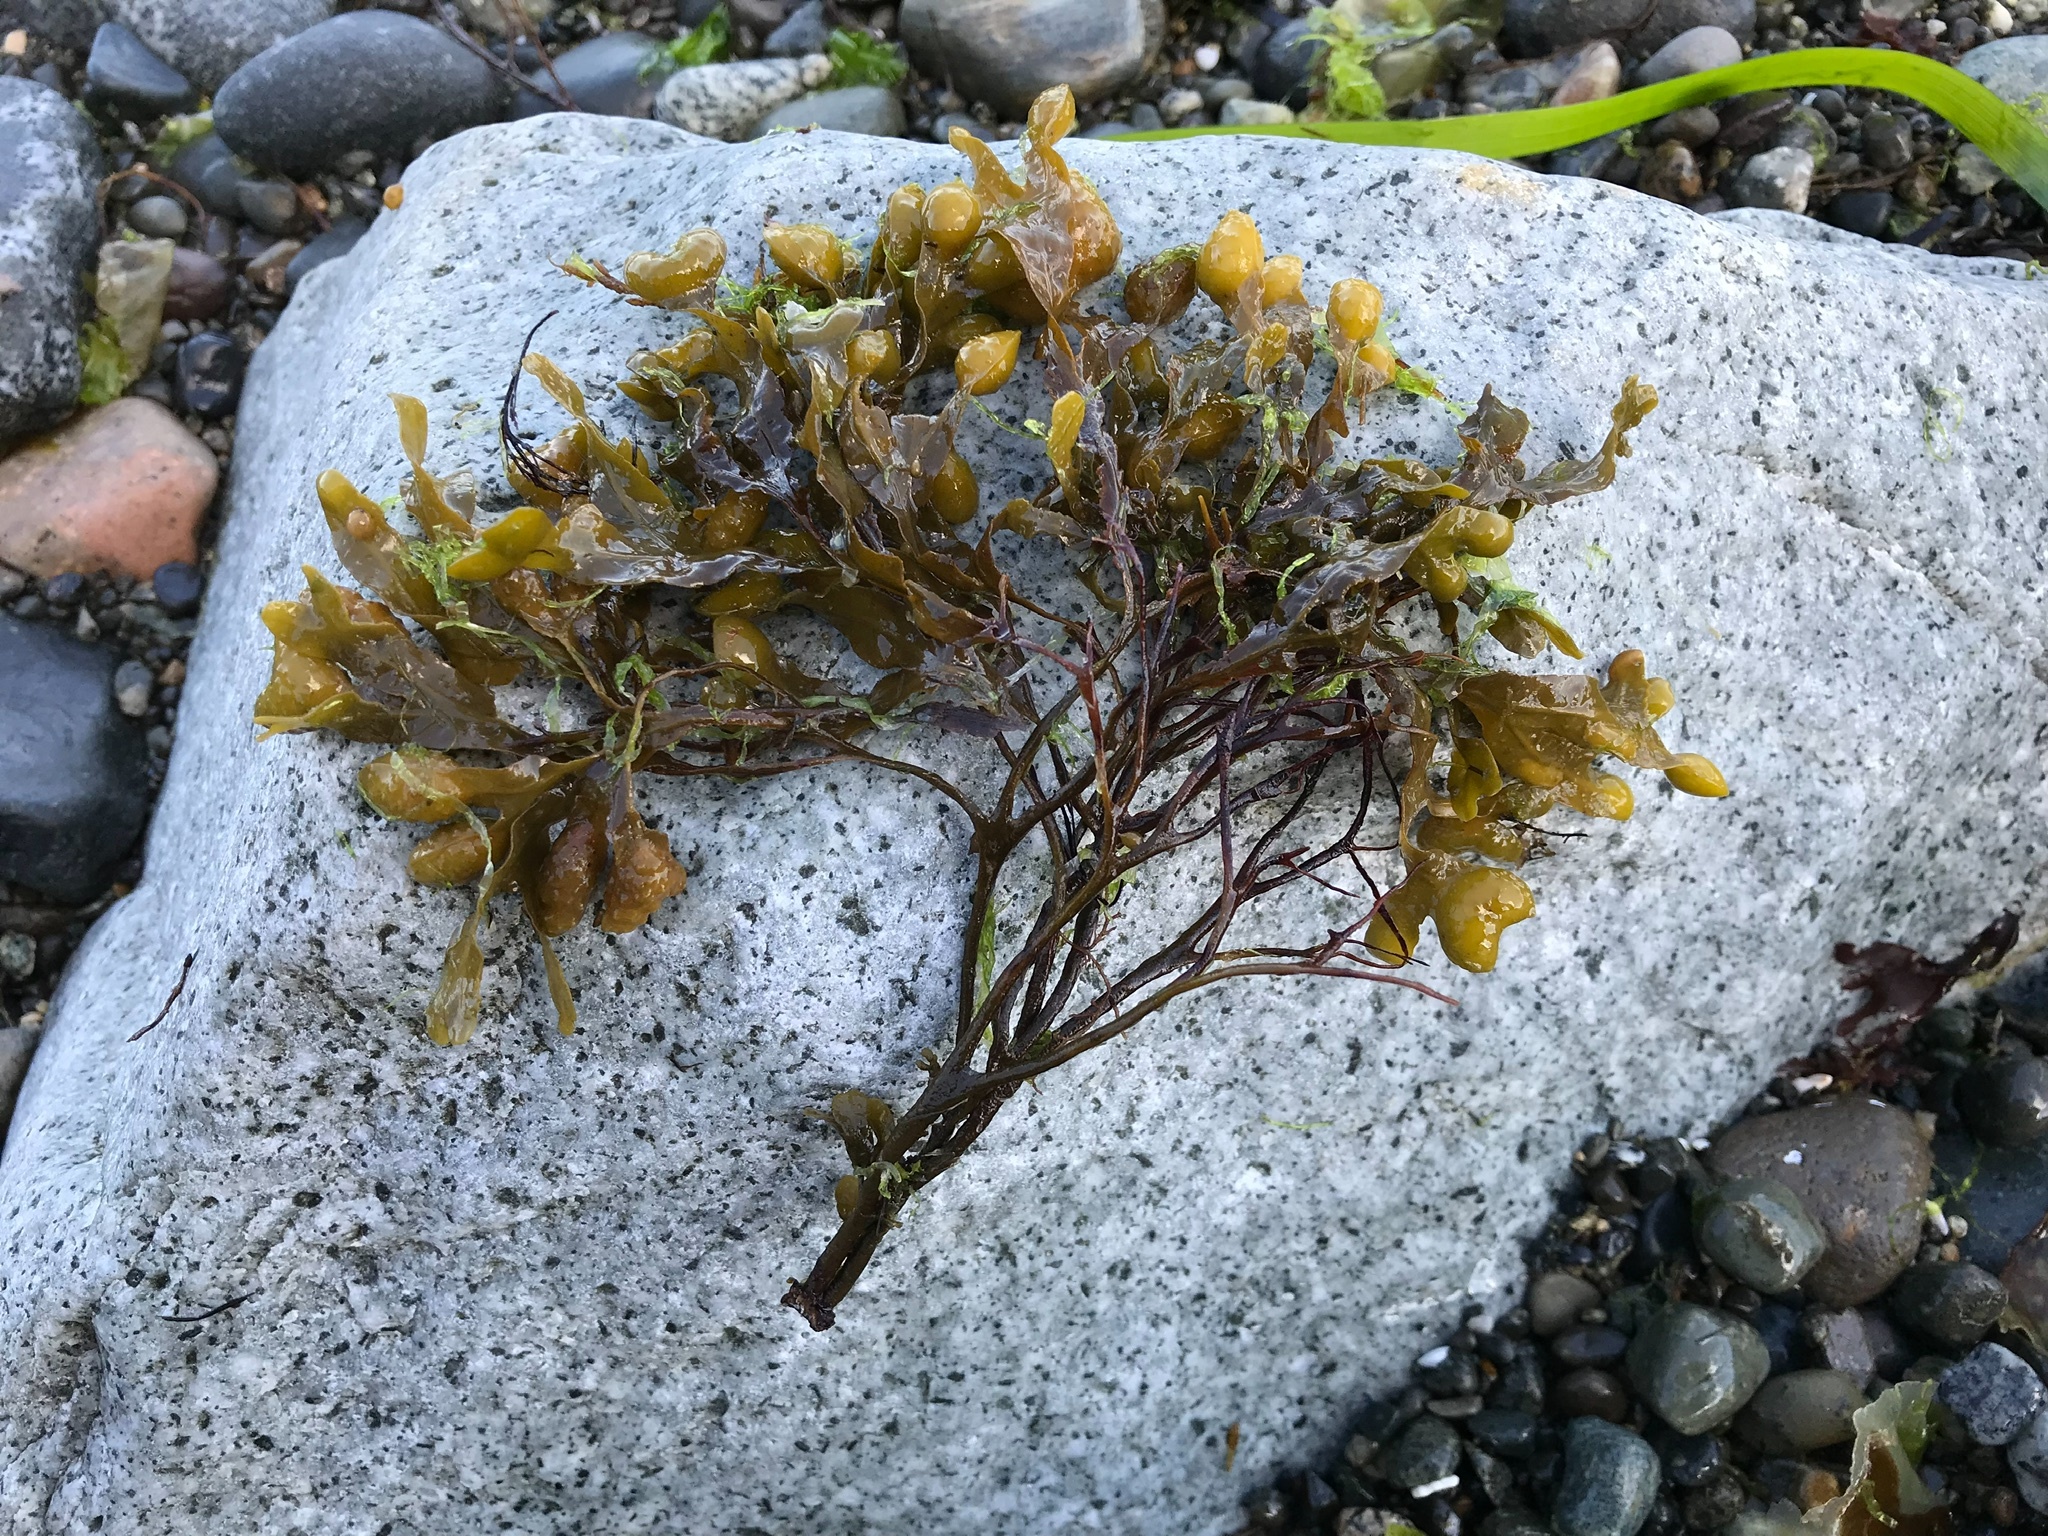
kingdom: Chromista
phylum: Ochrophyta
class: Phaeophyceae
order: Fucales
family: Fucaceae
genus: Fucus
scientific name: Fucus spiralis
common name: Spiral wrack
